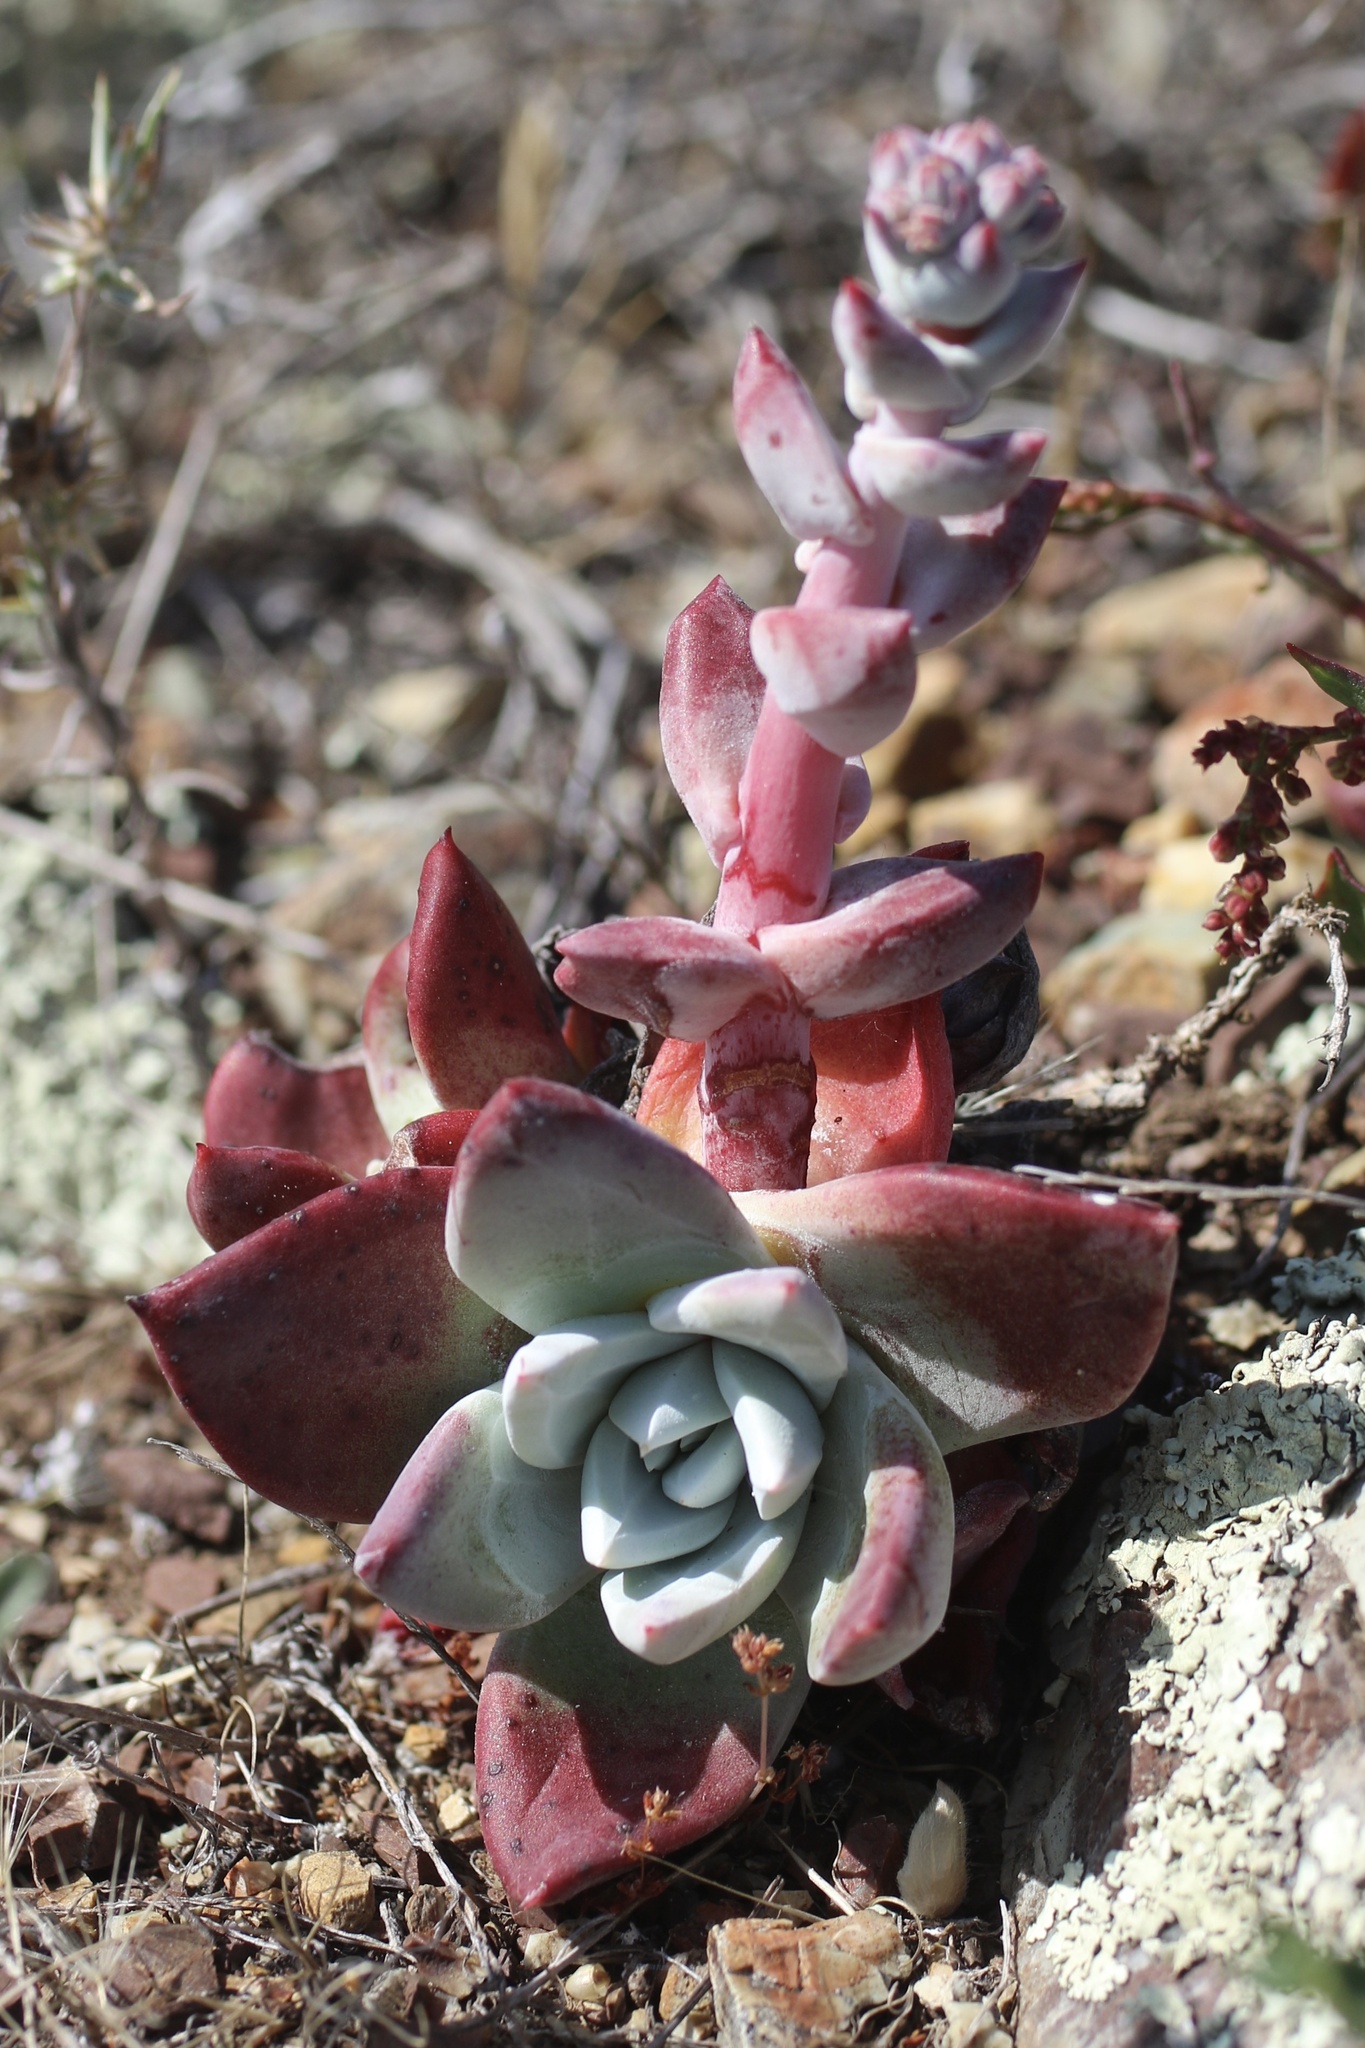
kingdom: Plantae
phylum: Tracheophyta
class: Magnoliopsida
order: Saxifragales
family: Crassulaceae
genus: Dudleya
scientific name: Dudleya farinosa
